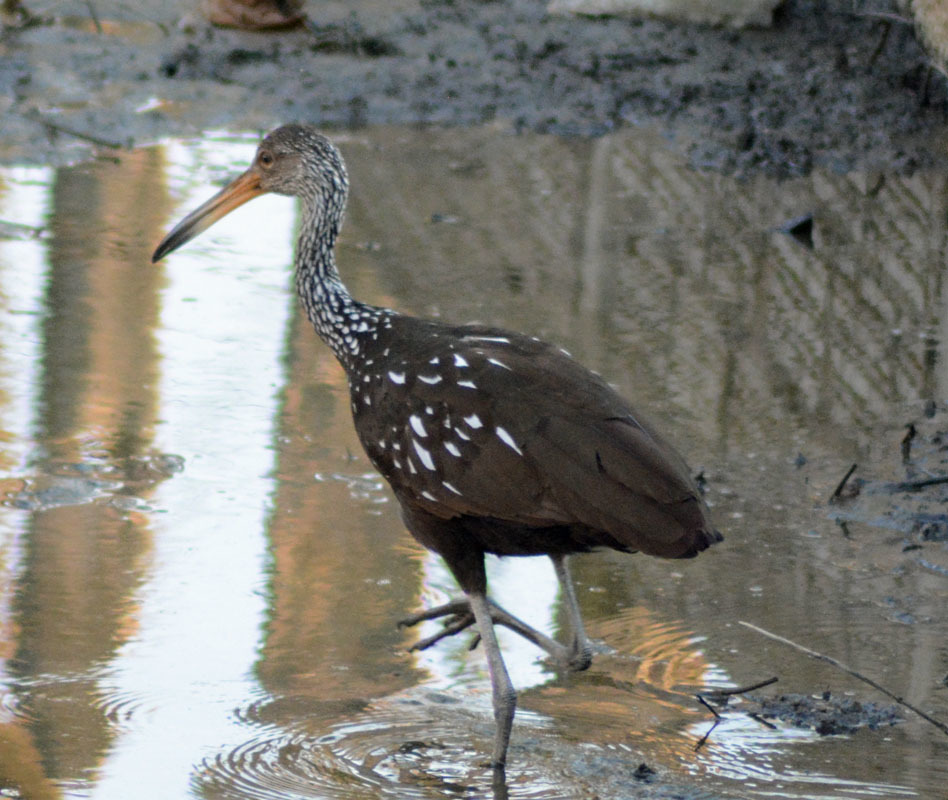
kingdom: Animalia
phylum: Chordata
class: Aves
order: Gruiformes
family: Aramidae
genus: Aramus
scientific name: Aramus guarauna
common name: Limpkin
